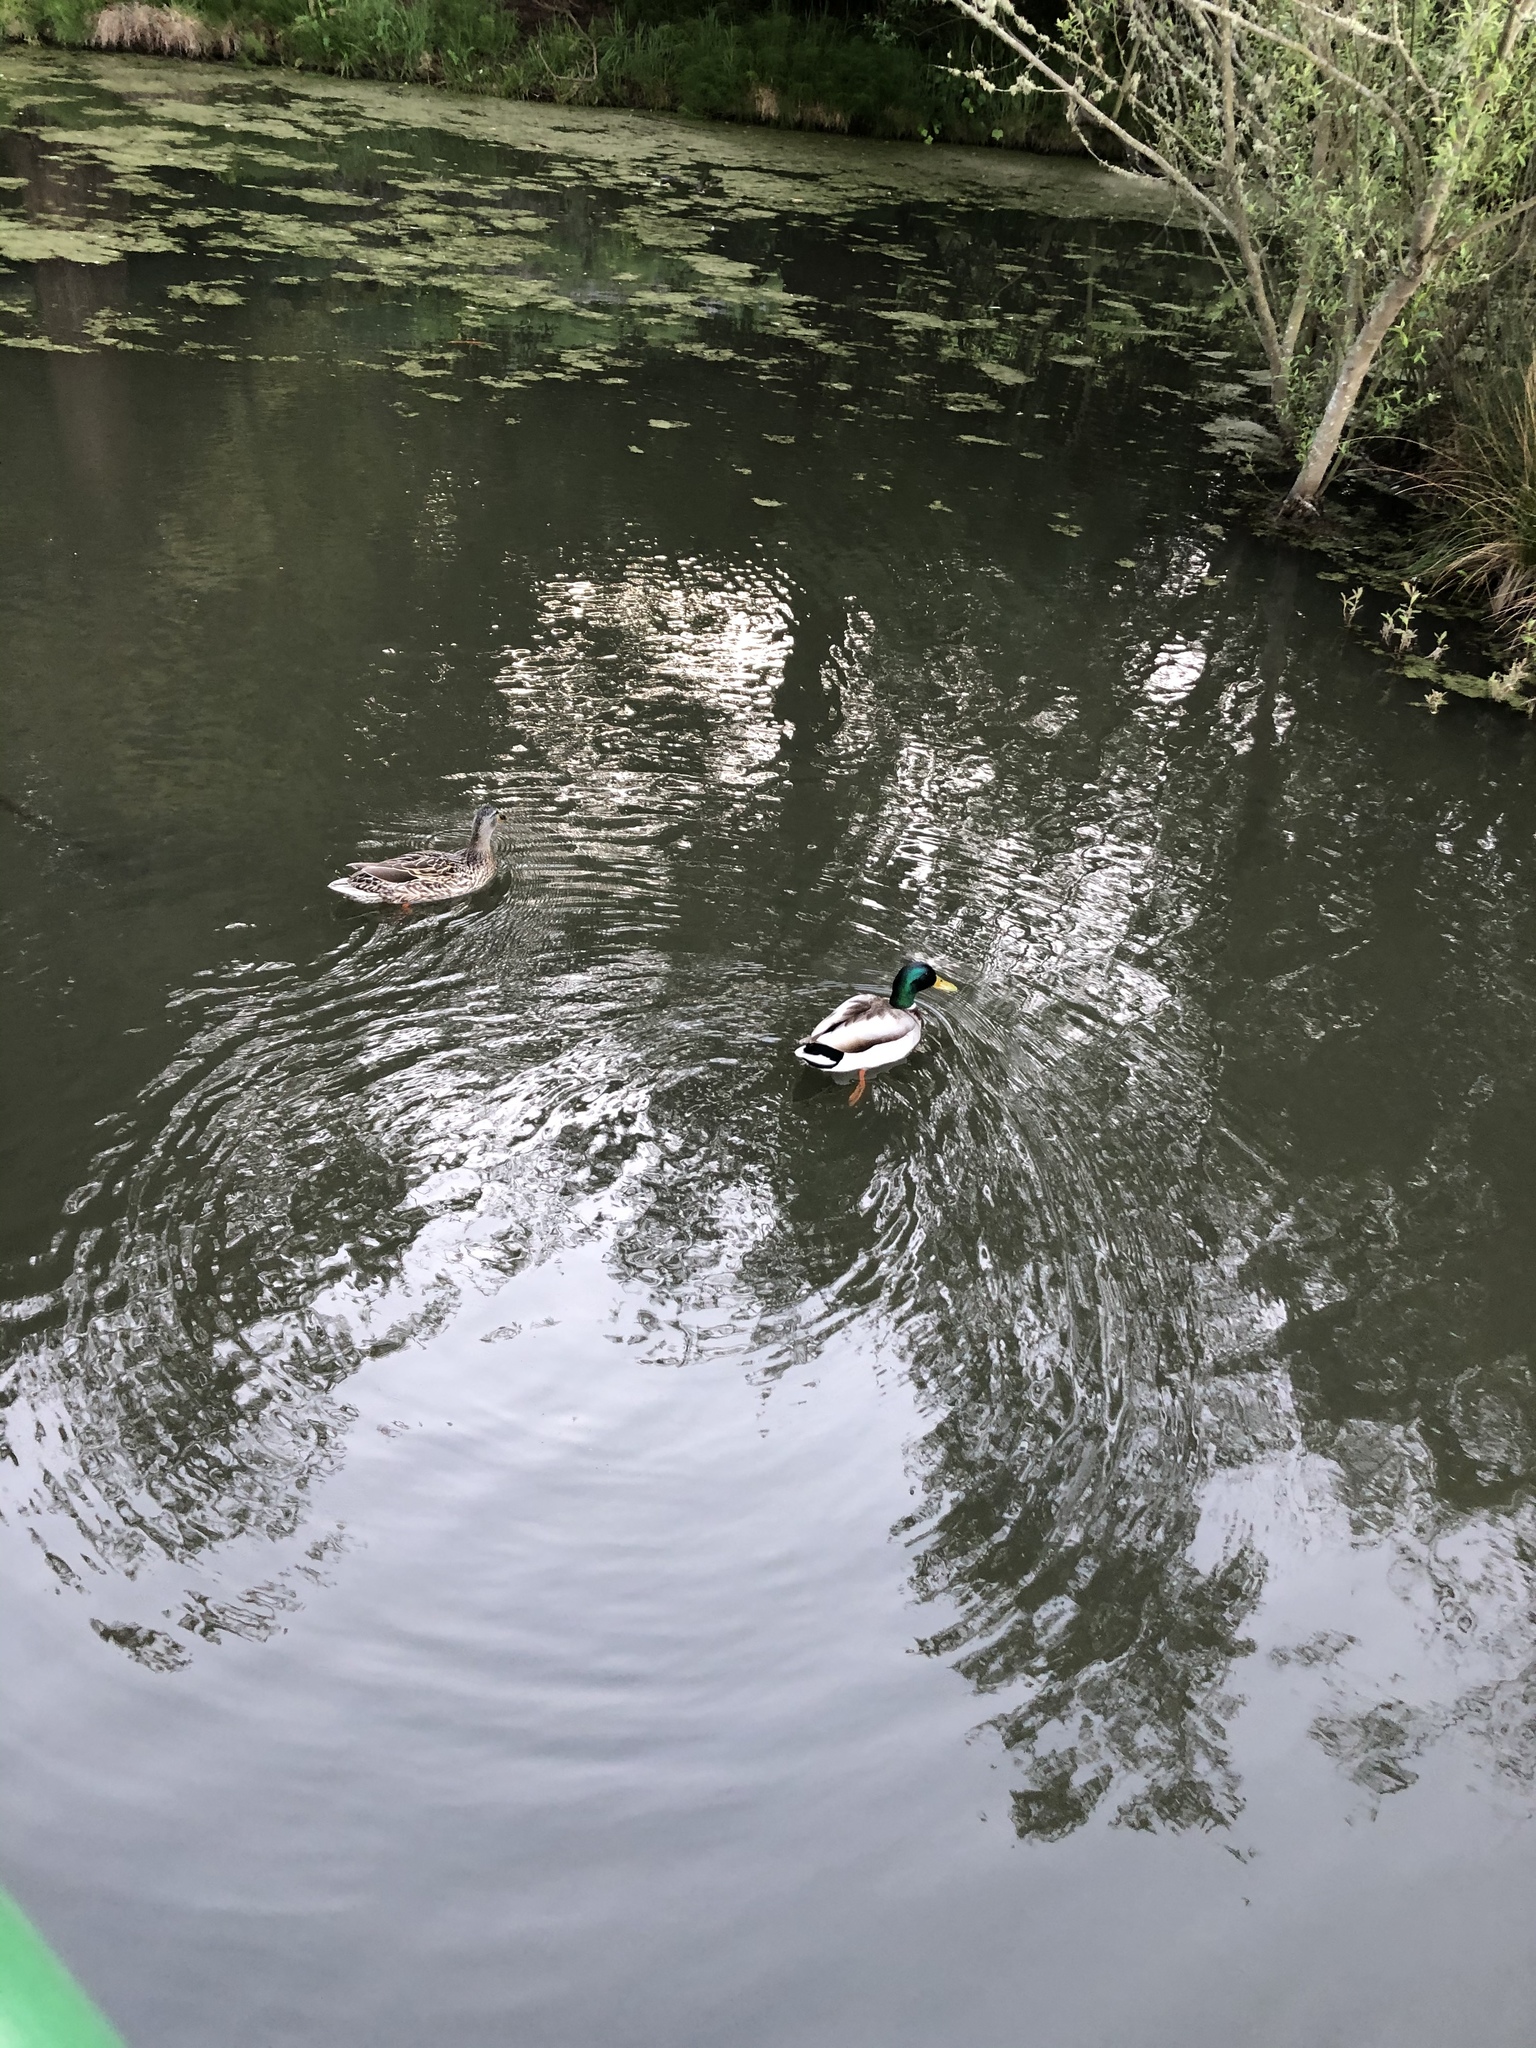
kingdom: Animalia
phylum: Chordata
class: Aves
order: Anseriformes
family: Anatidae
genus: Anas
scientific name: Anas platyrhynchos
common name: Mallard
